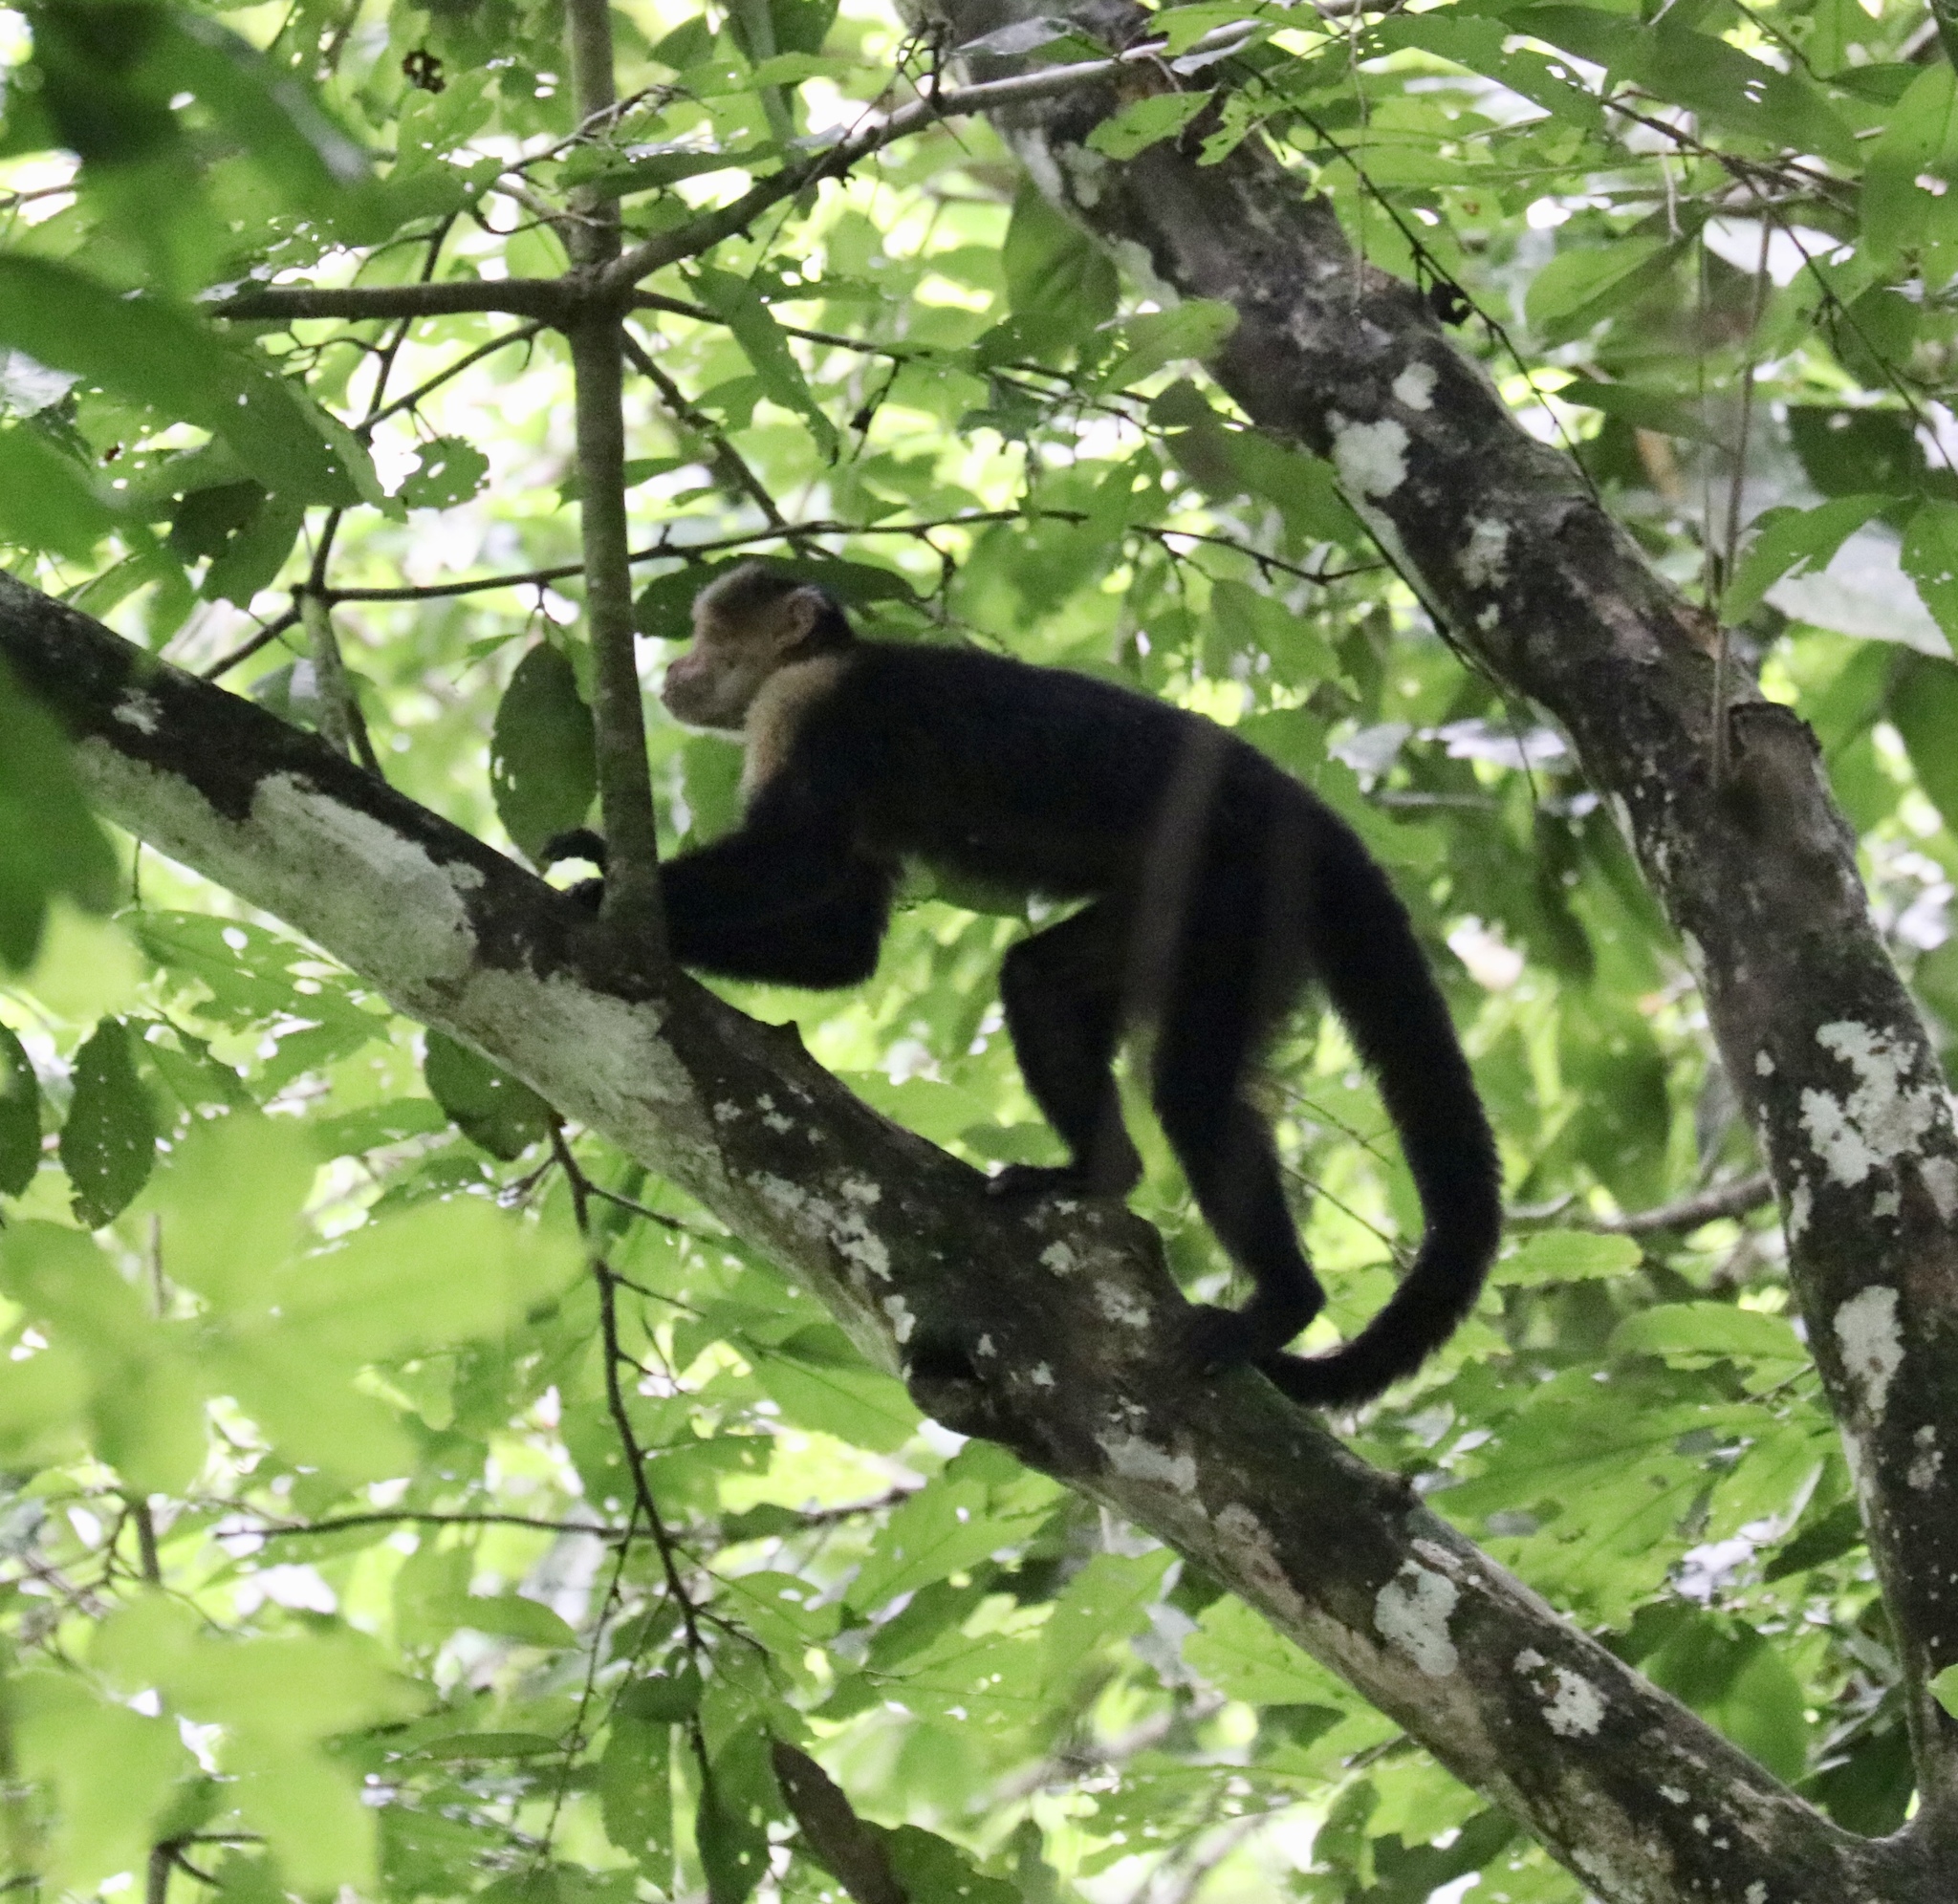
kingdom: Animalia
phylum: Chordata
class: Mammalia
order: Primates
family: Cebidae
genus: Cebus
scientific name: Cebus capucinus
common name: White-headed capuchin
